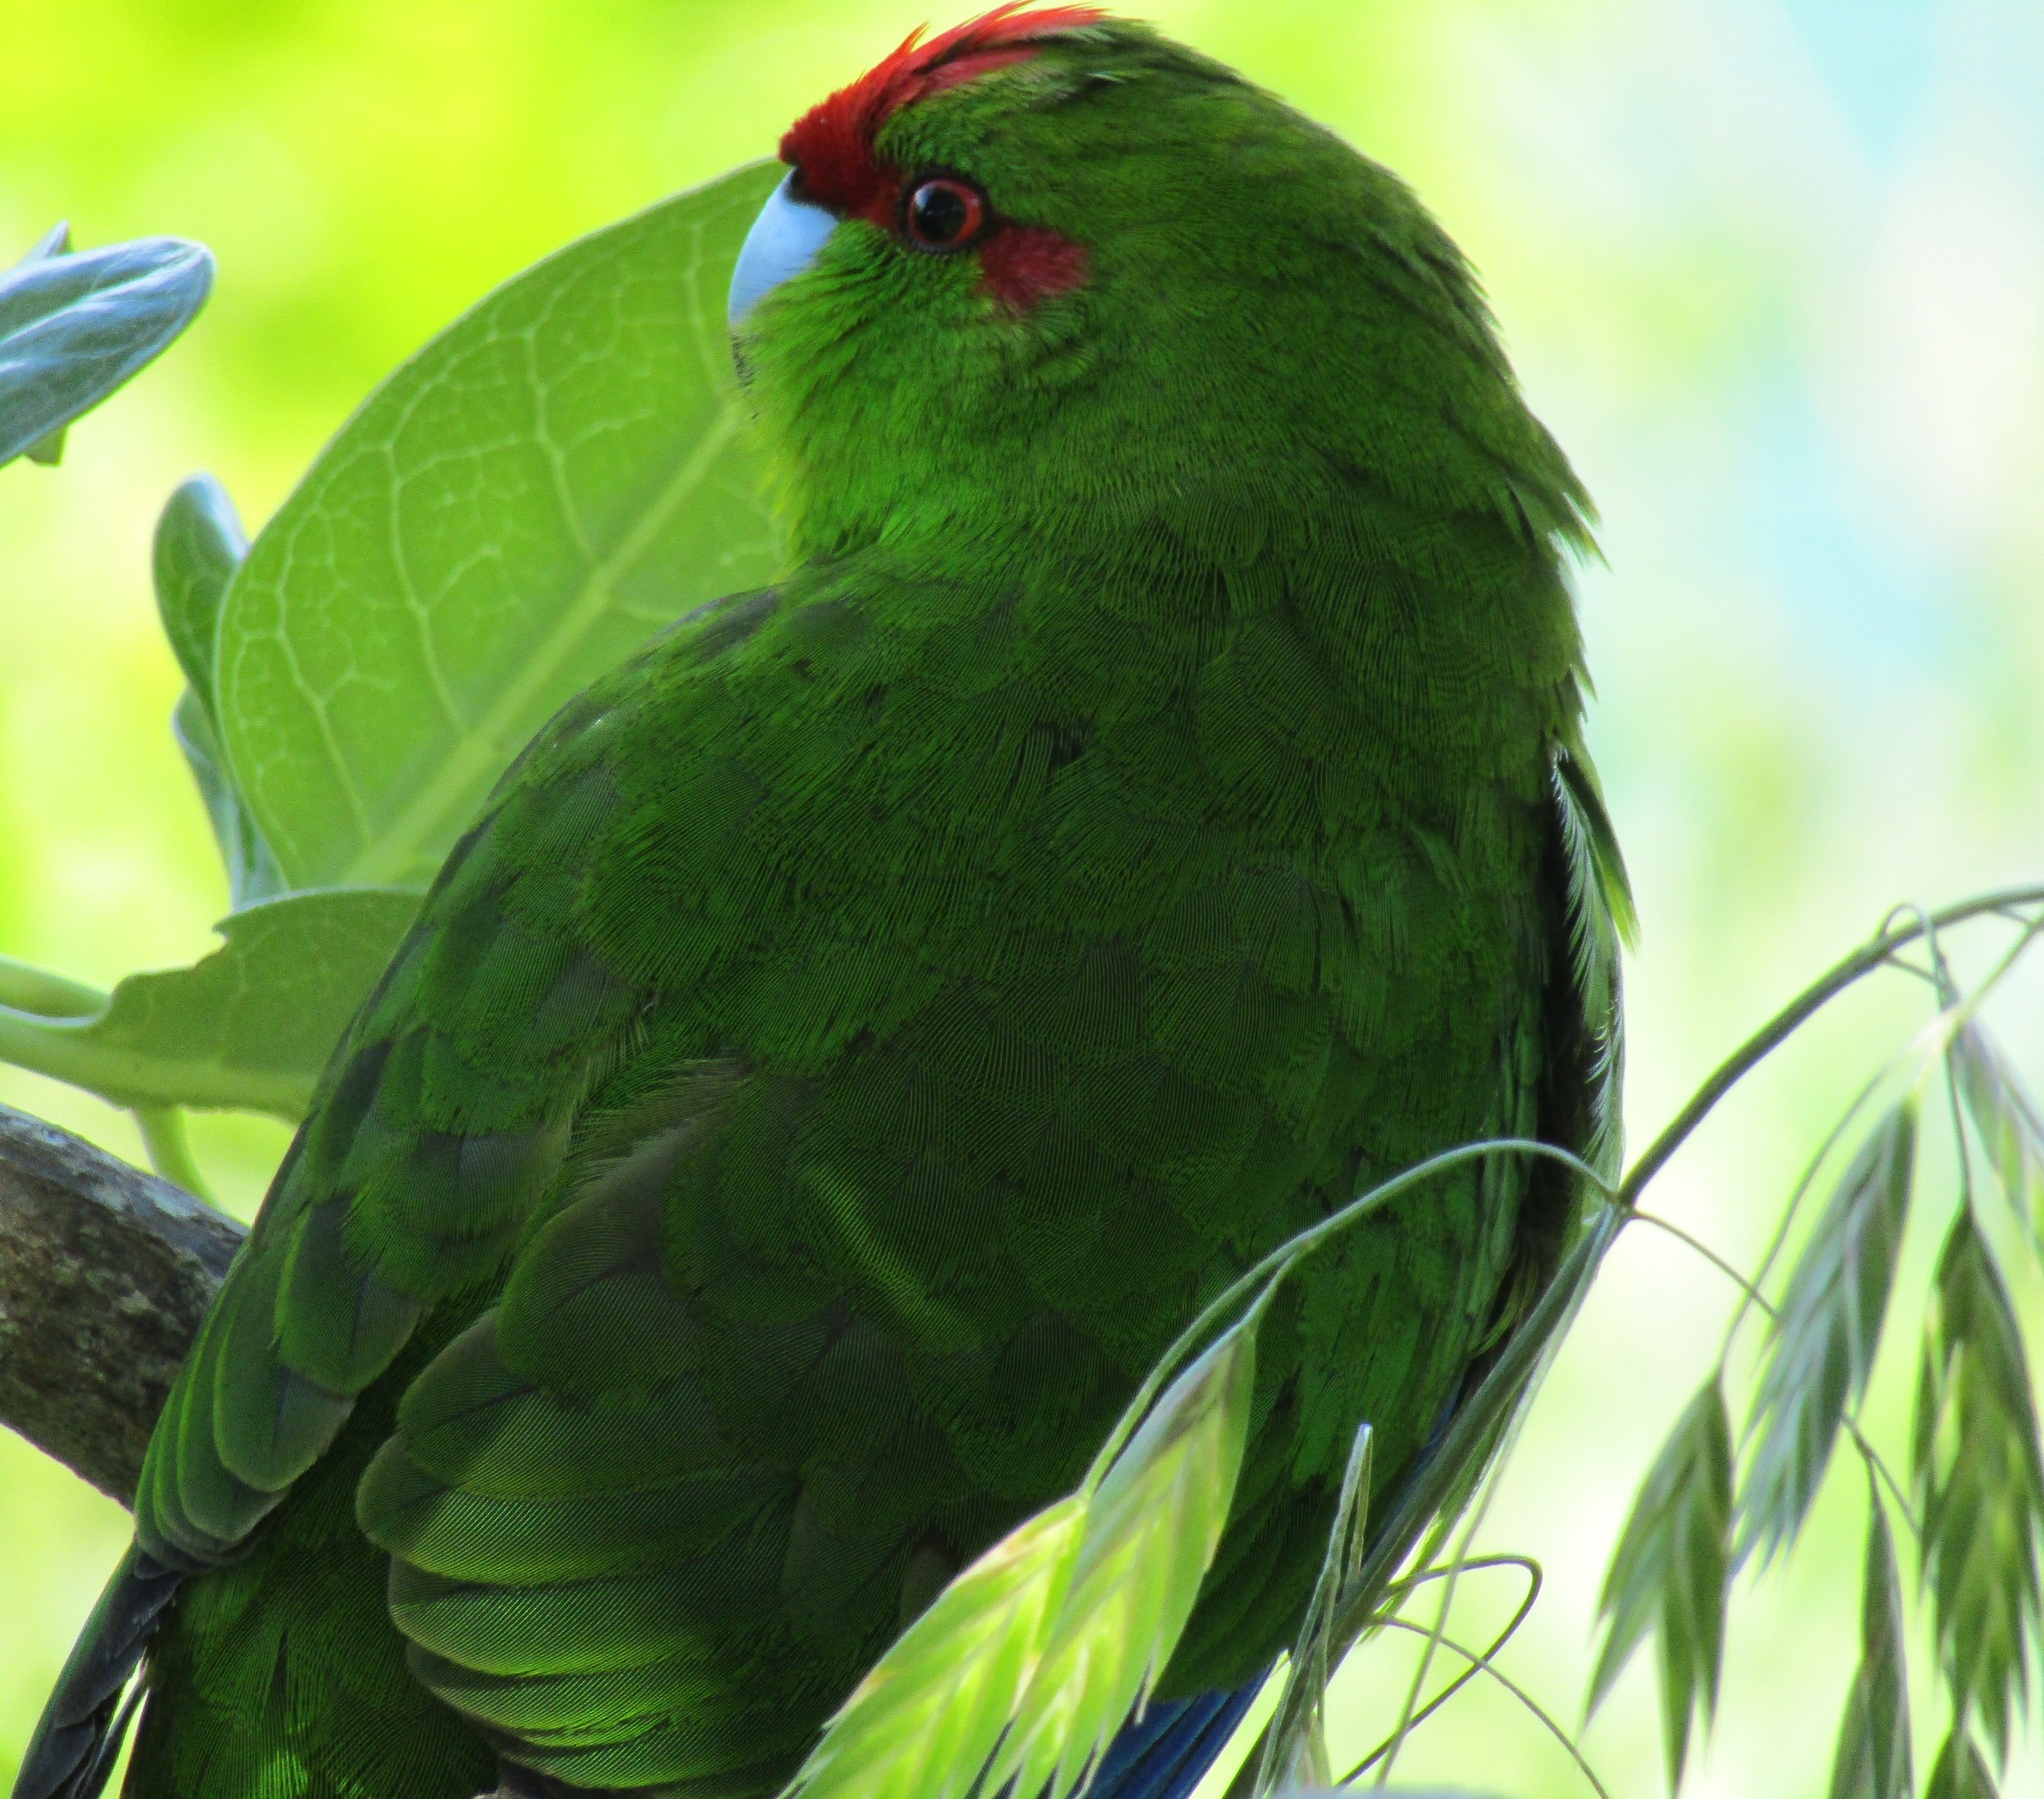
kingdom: Animalia
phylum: Chordata
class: Aves
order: Psittaciformes
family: Psittacidae
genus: Cyanoramphus
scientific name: Cyanoramphus novaezelandiae
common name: Red-fronted parakeet
